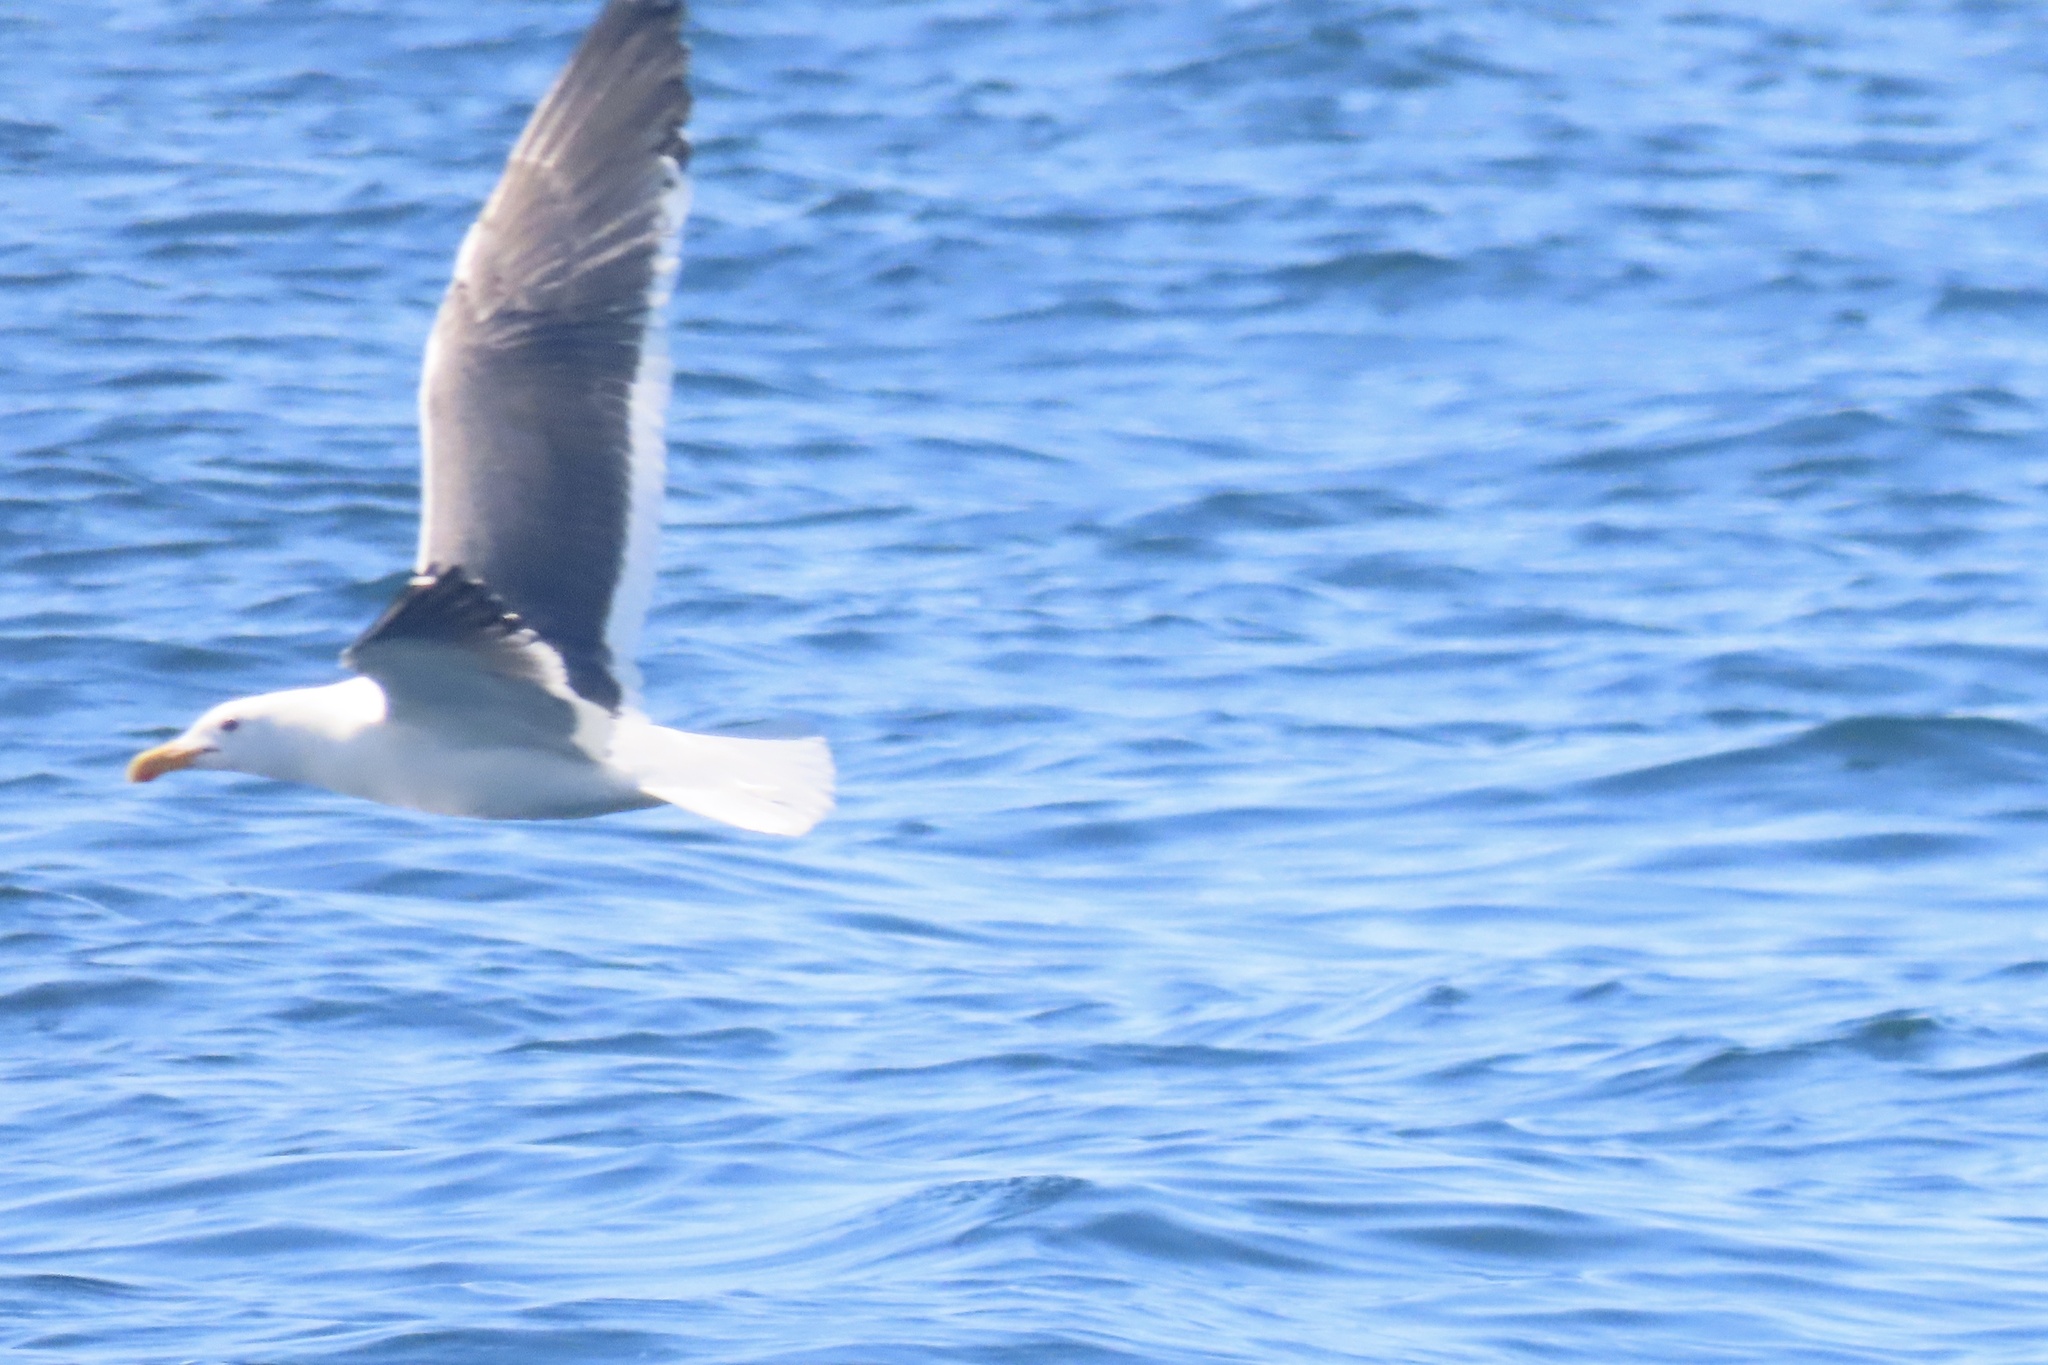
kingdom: Animalia
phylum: Chordata
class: Aves
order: Charadriiformes
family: Laridae
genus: Larus
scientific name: Larus occidentalis
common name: Western gull
